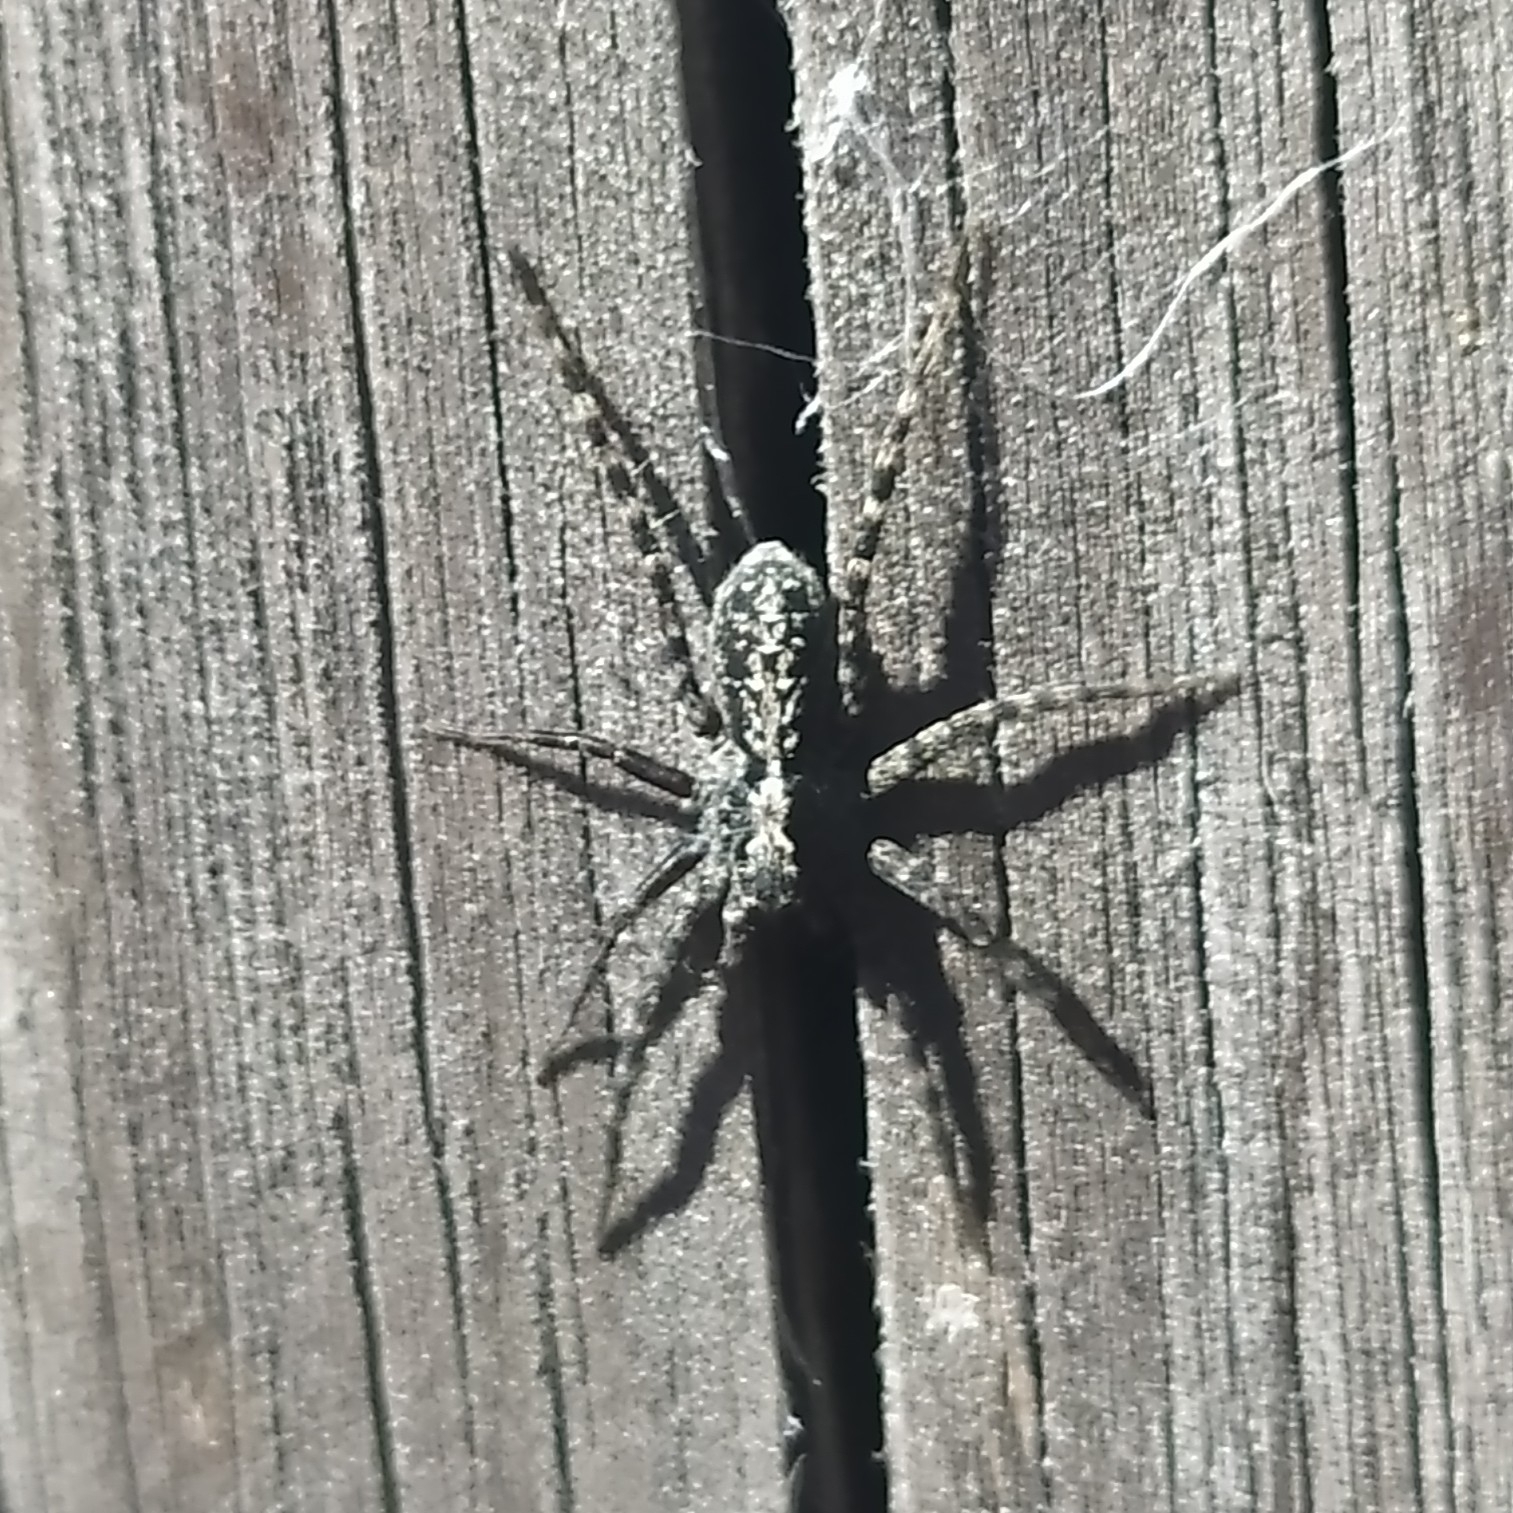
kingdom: Animalia
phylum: Arthropoda
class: Arachnida
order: Araneae
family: Lycosidae
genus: Acantholycosa
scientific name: Acantholycosa lignaria
